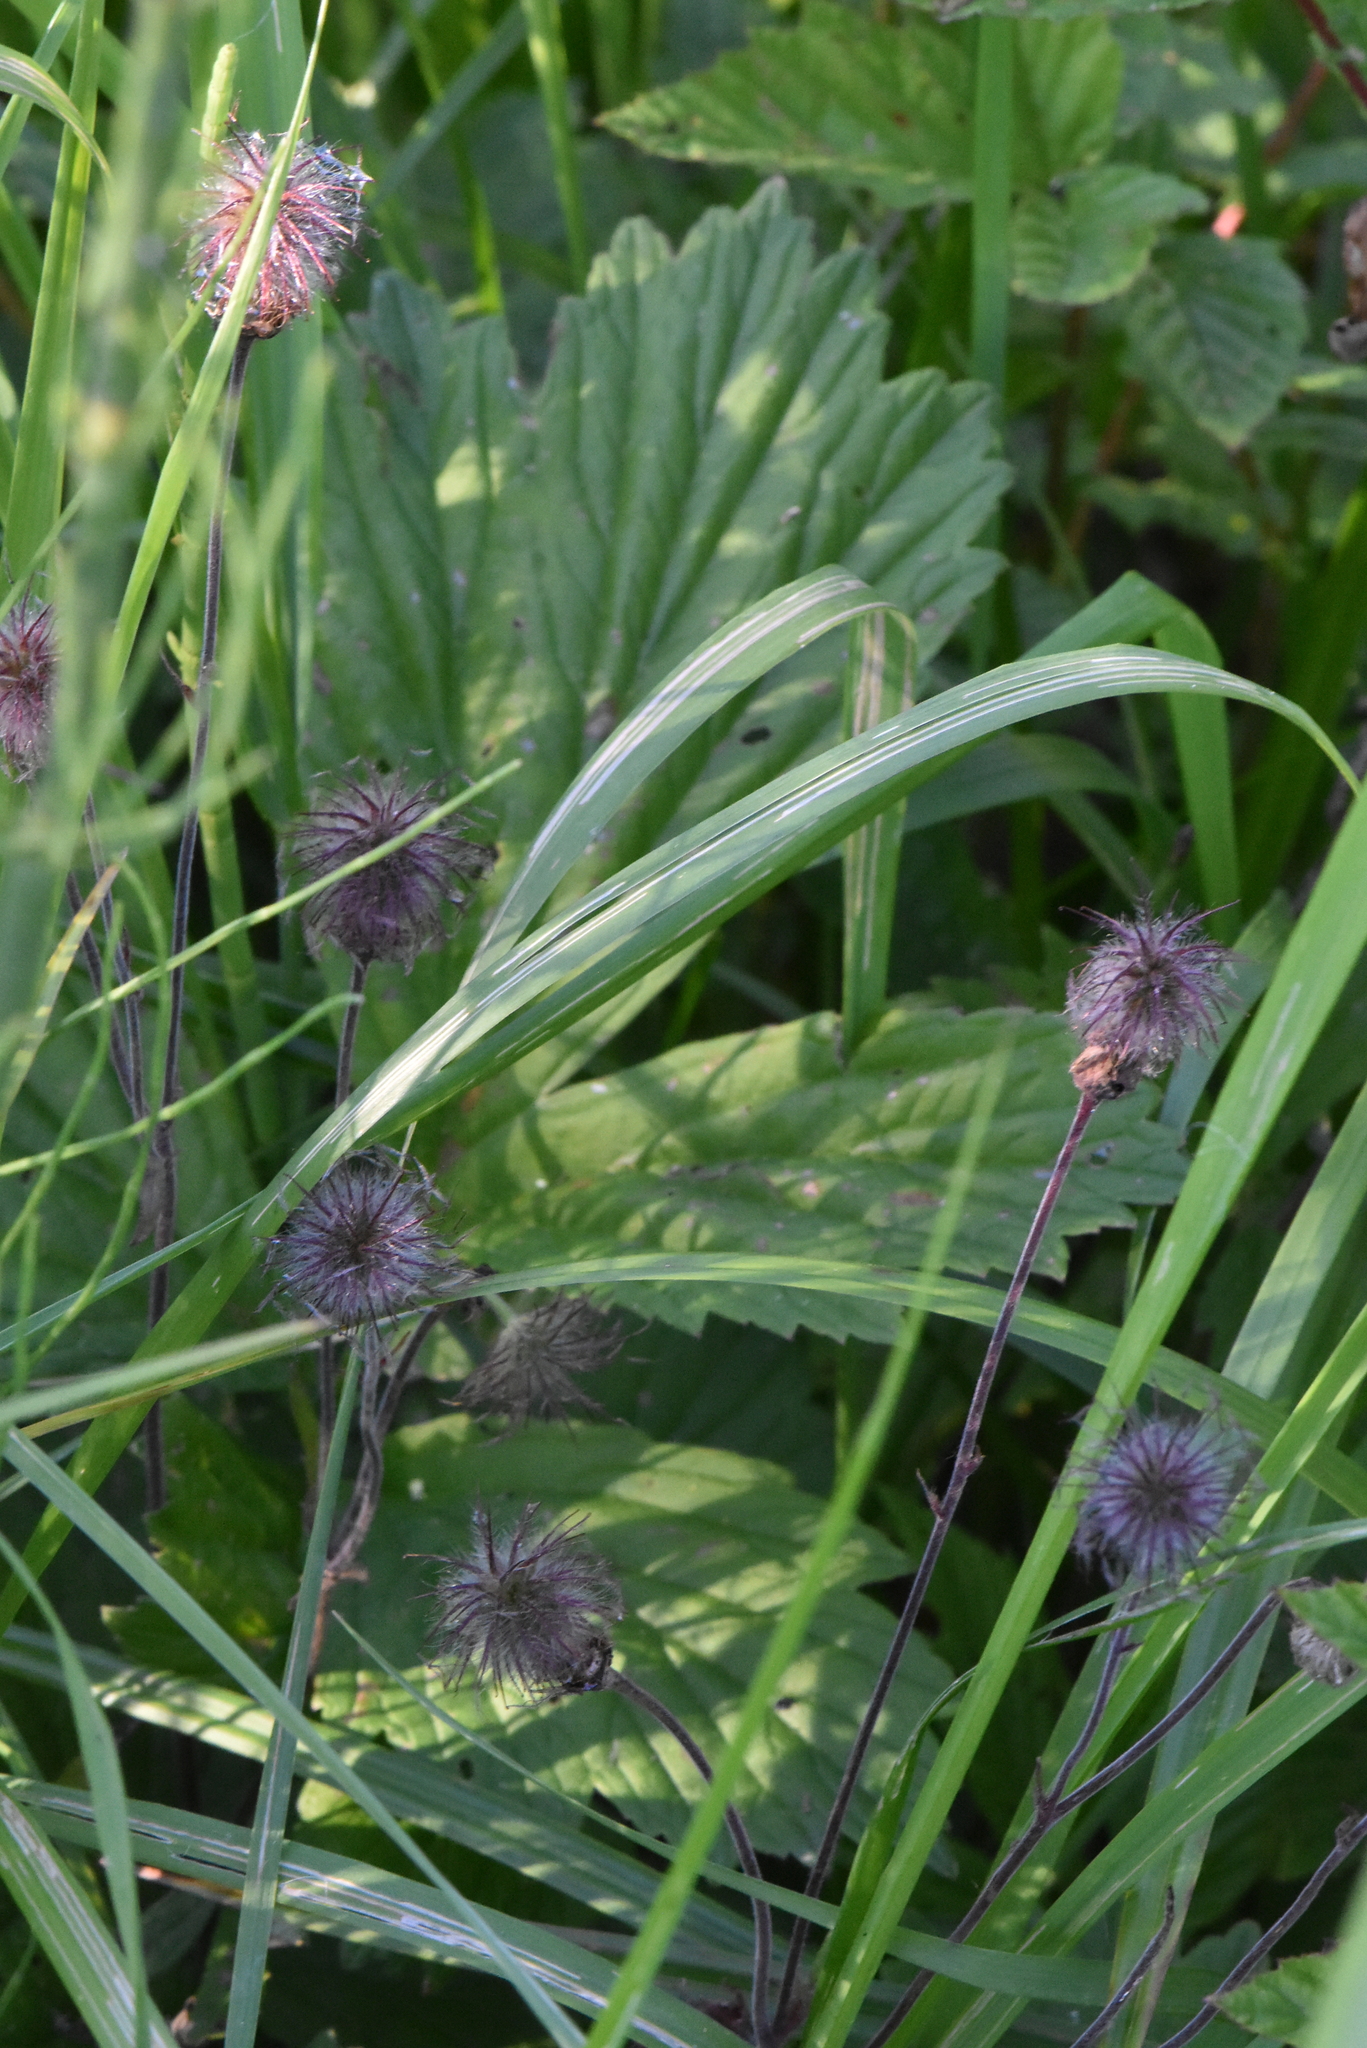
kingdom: Plantae
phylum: Tracheophyta
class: Magnoliopsida
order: Rosales
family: Rosaceae
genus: Geum
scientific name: Geum rivale
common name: Water avens
